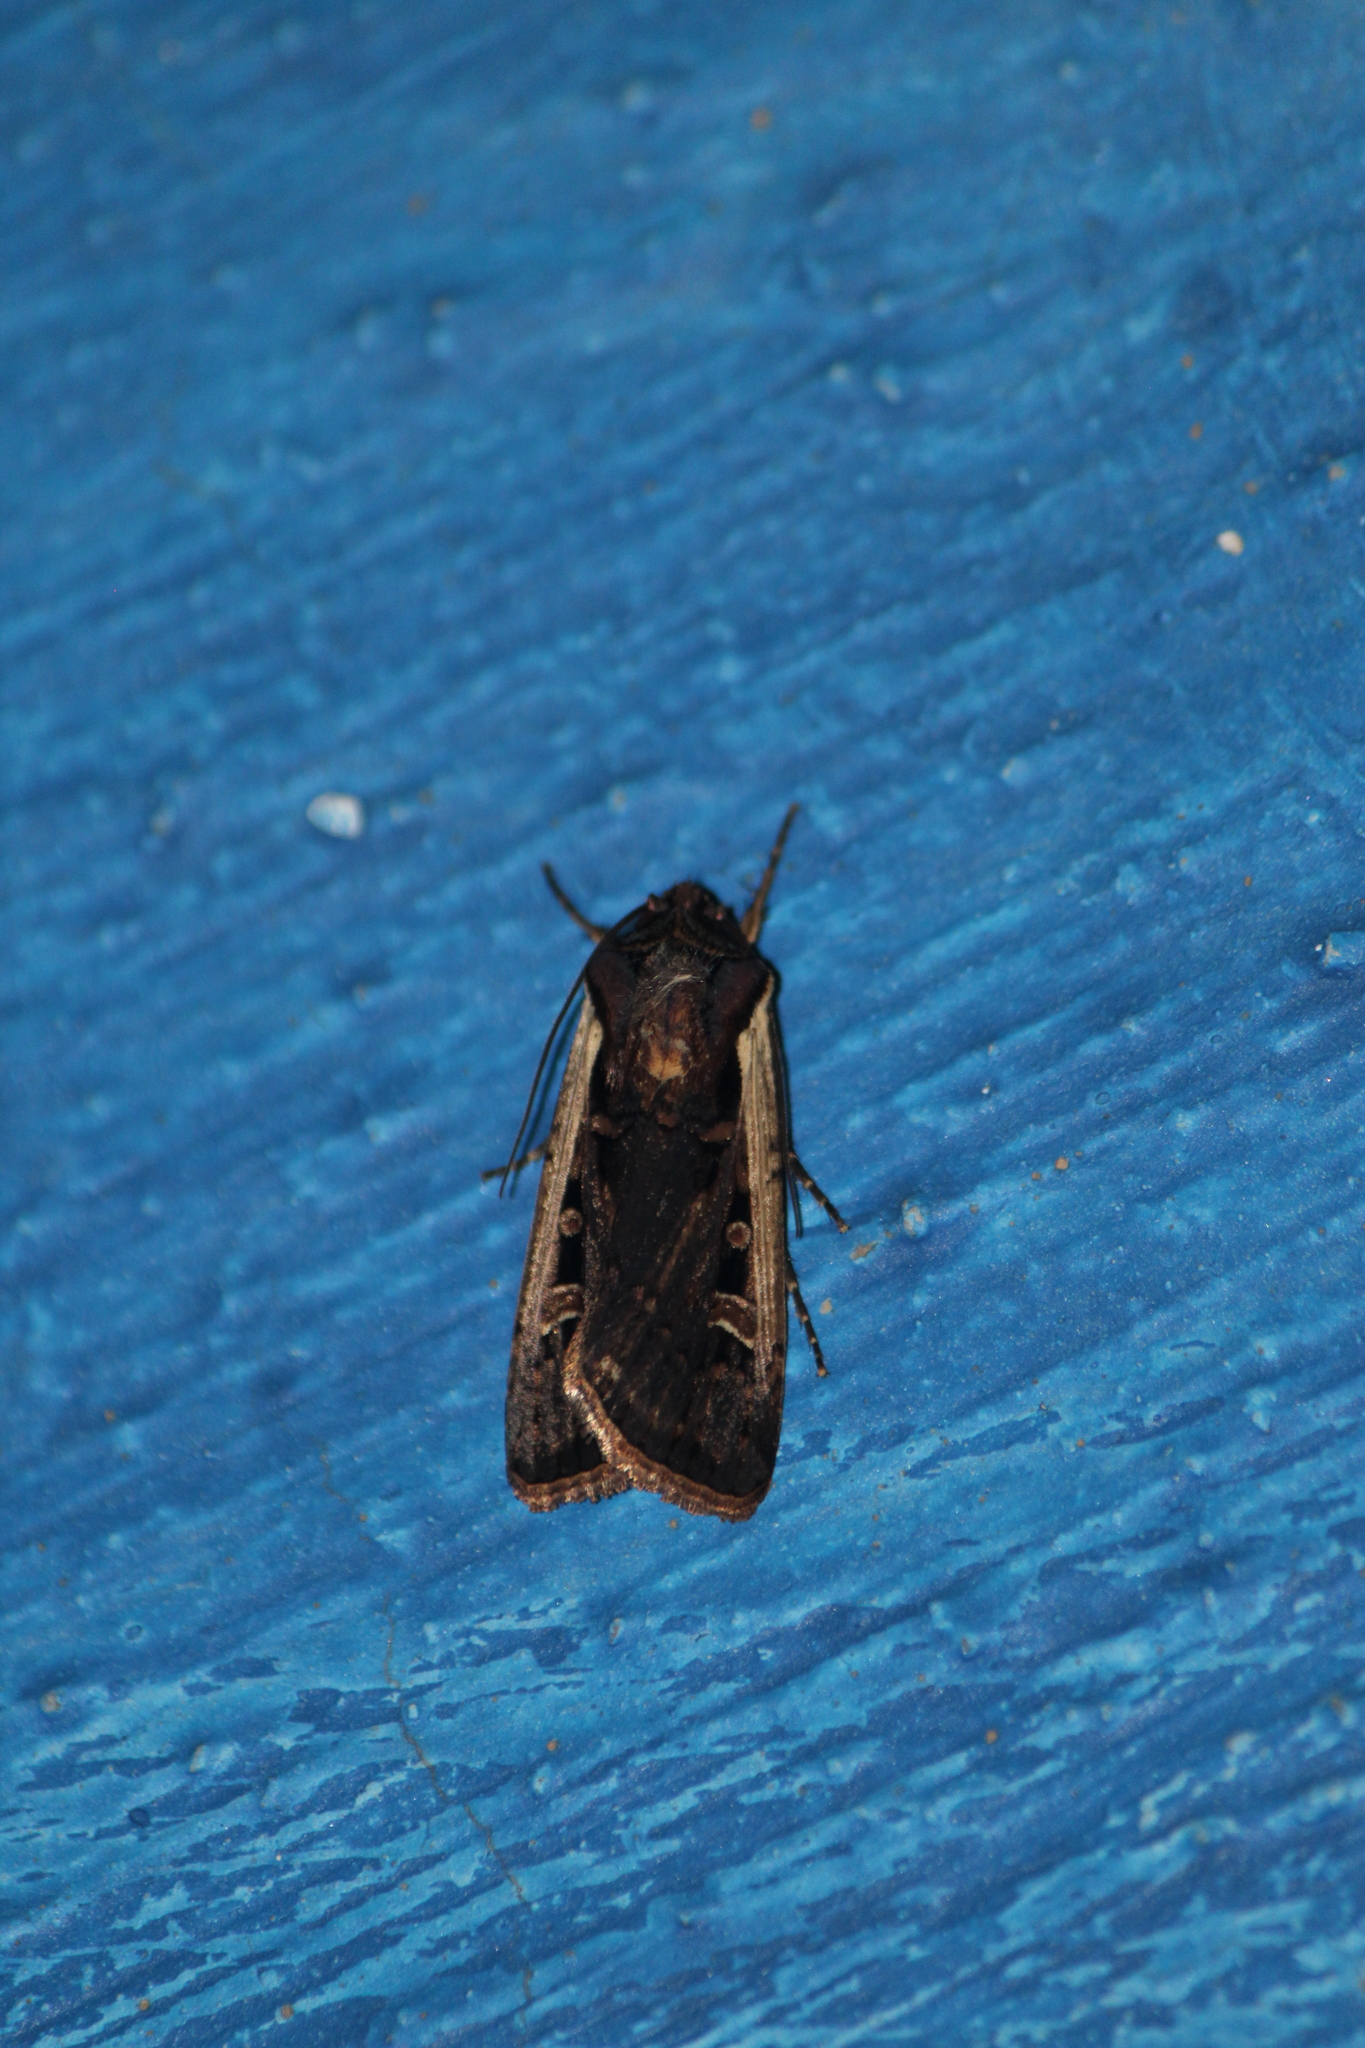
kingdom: Animalia
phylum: Arthropoda
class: Insecta
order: Lepidoptera
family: Noctuidae
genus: Striacosta
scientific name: Striacosta albicosta
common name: Western bean cutworm moth
